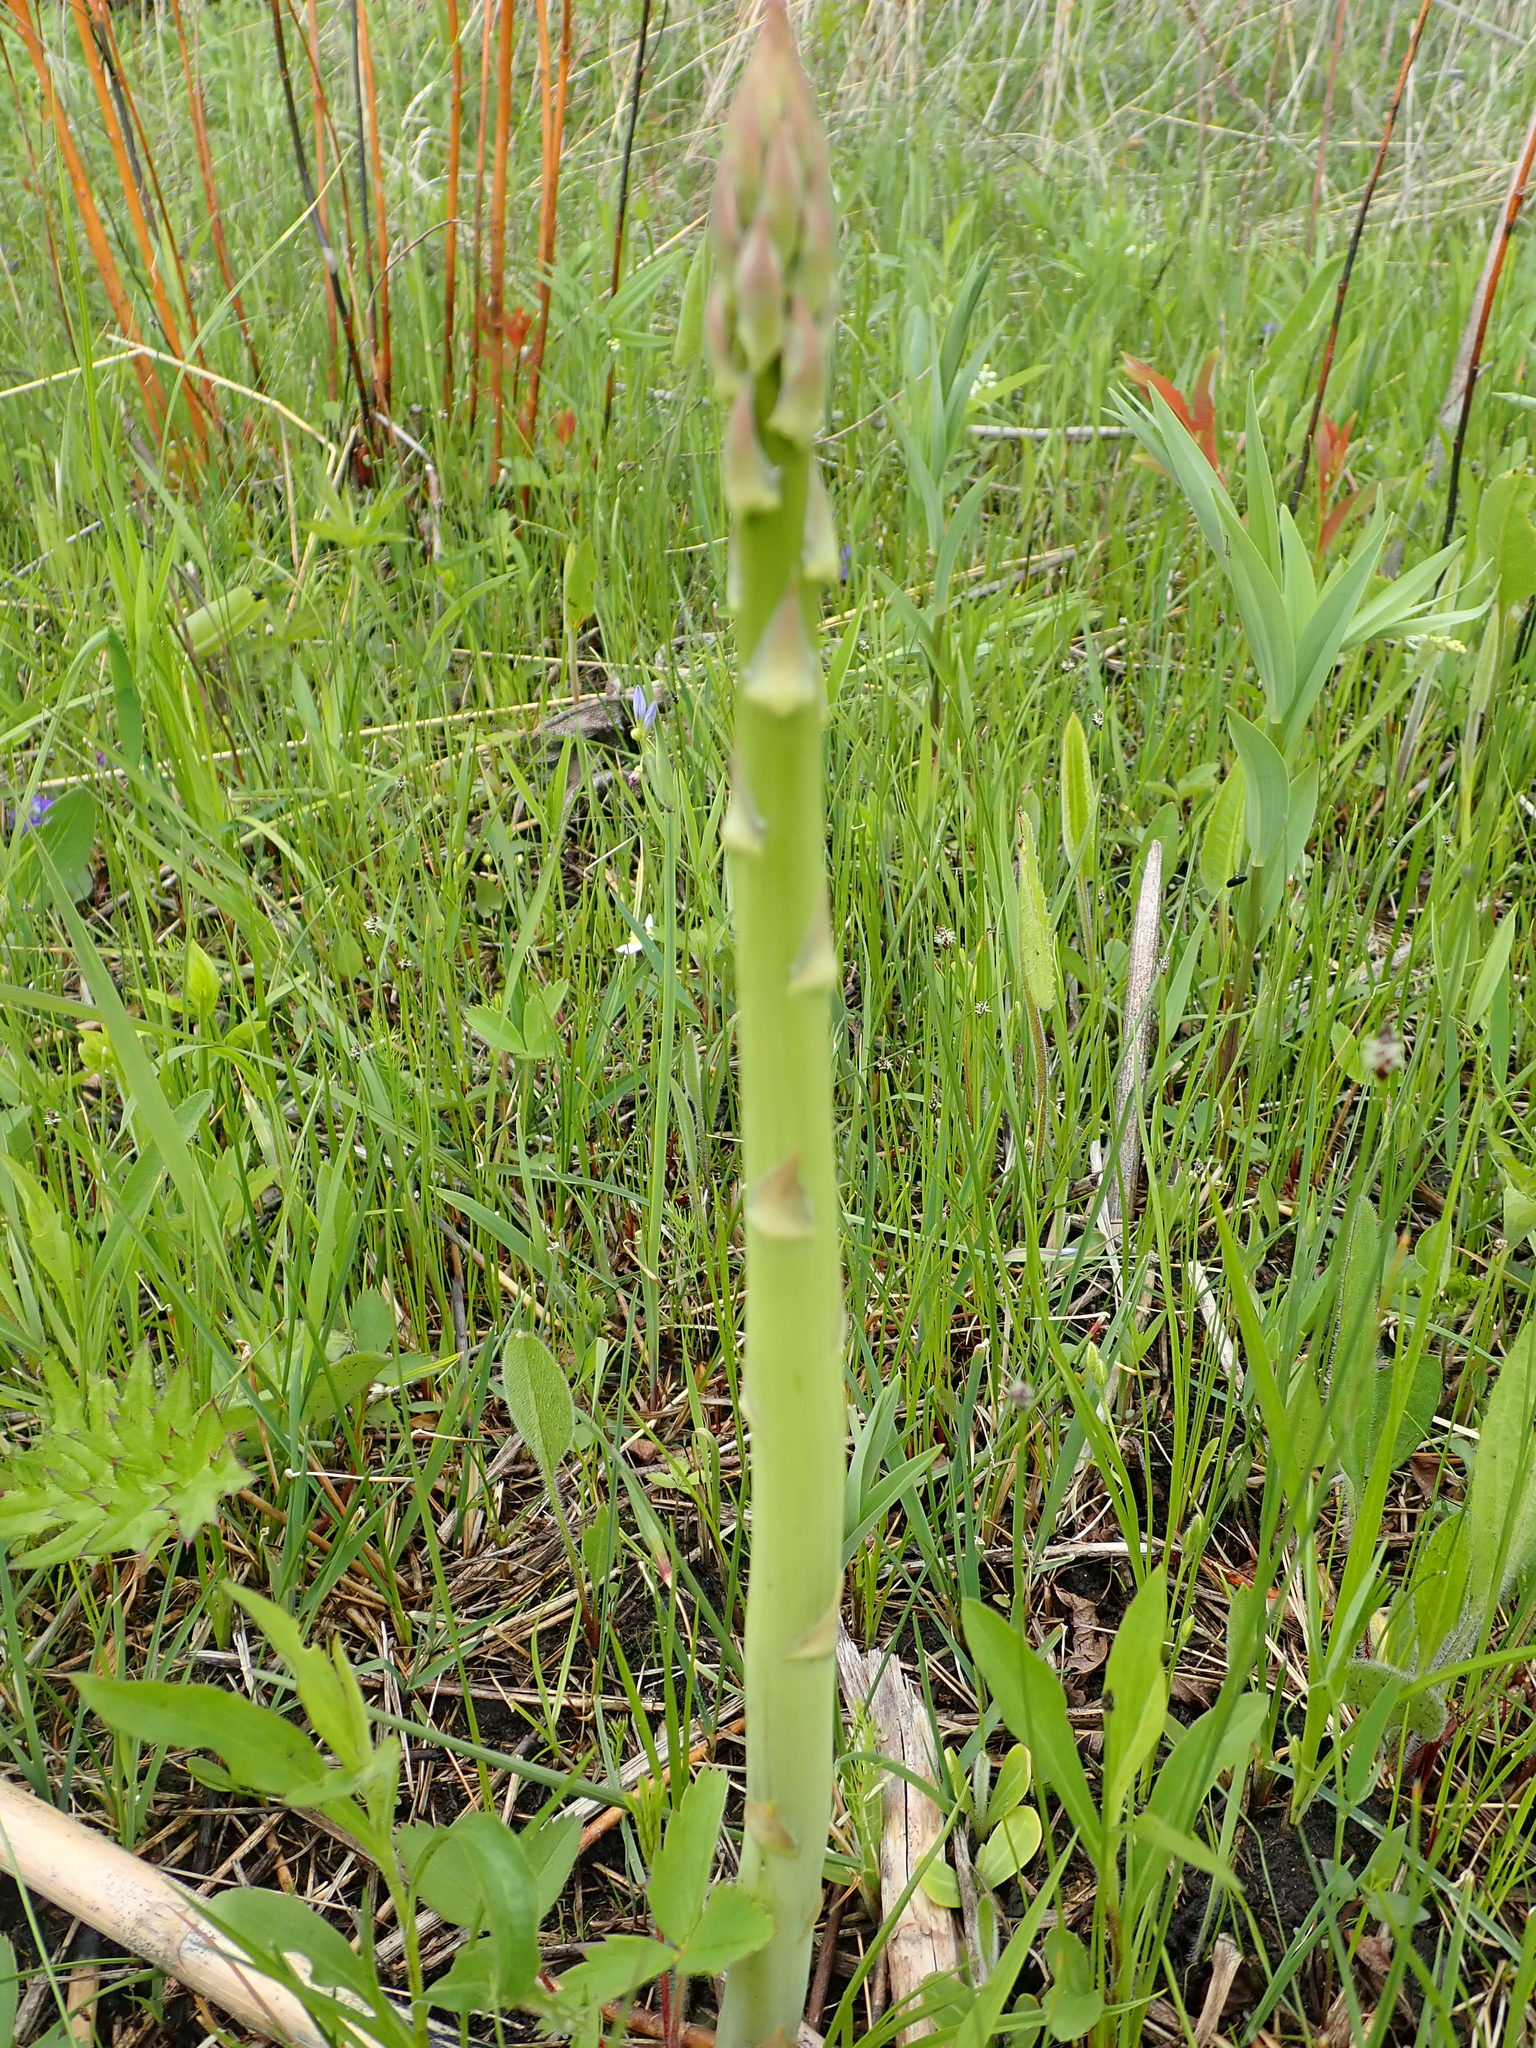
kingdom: Plantae
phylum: Tracheophyta
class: Liliopsida
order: Asparagales
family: Asparagaceae
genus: Asparagus
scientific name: Asparagus officinalis
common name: Garden asparagus
